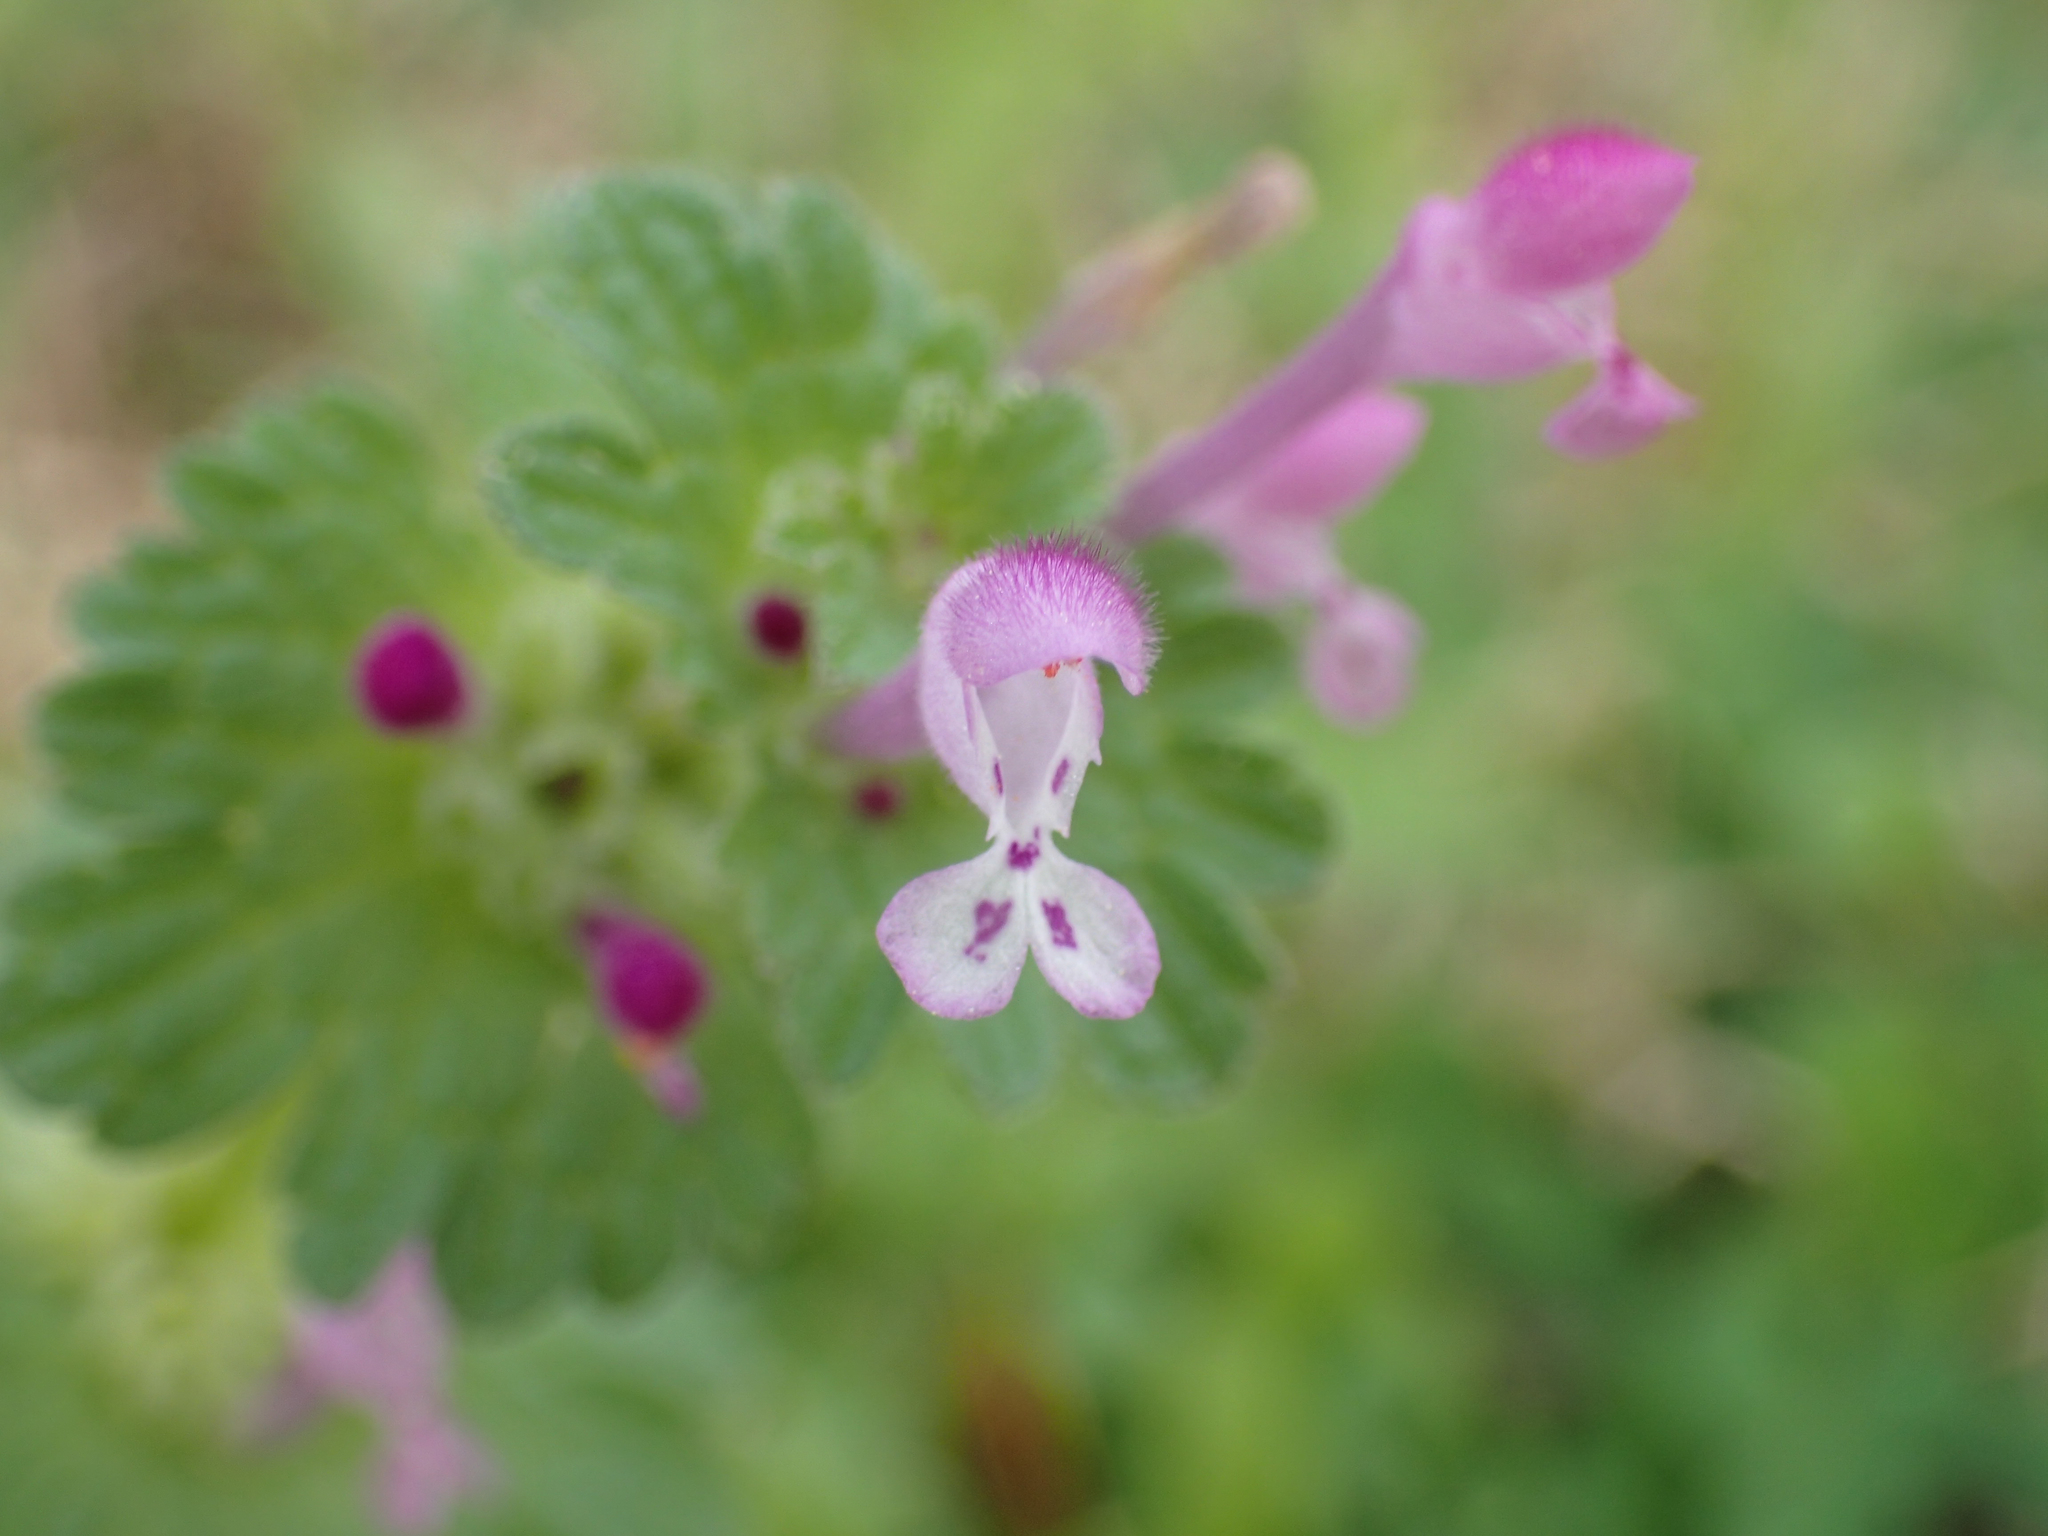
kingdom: Plantae
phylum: Tracheophyta
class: Magnoliopsida
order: Lamiales
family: Lamiaceae
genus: Lamium
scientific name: Lamium amplexicaule
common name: Henbit dead-nettle
